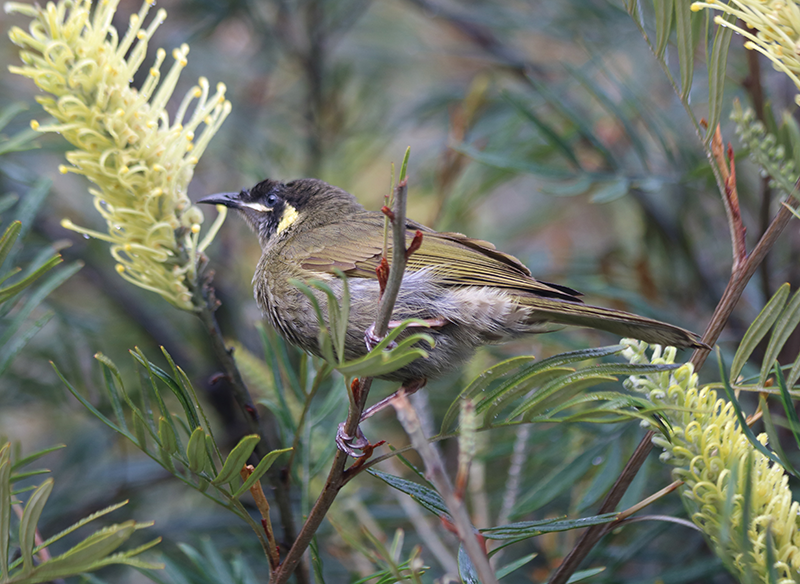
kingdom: Animalia
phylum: Chordata
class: Aves
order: Passeriformes
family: Meliphagidae
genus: Meliphaga
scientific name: Meliphaga lewinii
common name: Lewin's honeyeater
